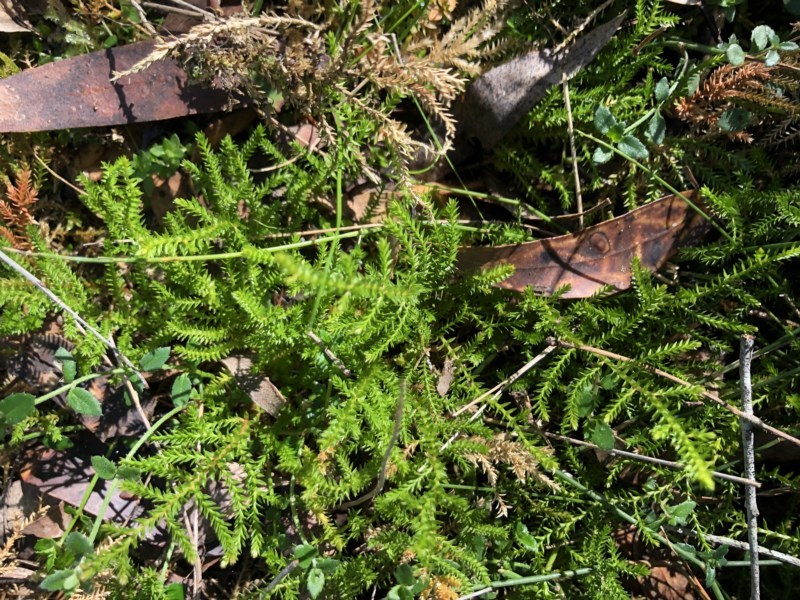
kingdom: Plantae
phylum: Tracheophyta
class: Lycopodiopsida
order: Selaginellales
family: Selaginellaceae
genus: Selaginella
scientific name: Selaginella uliginosa
